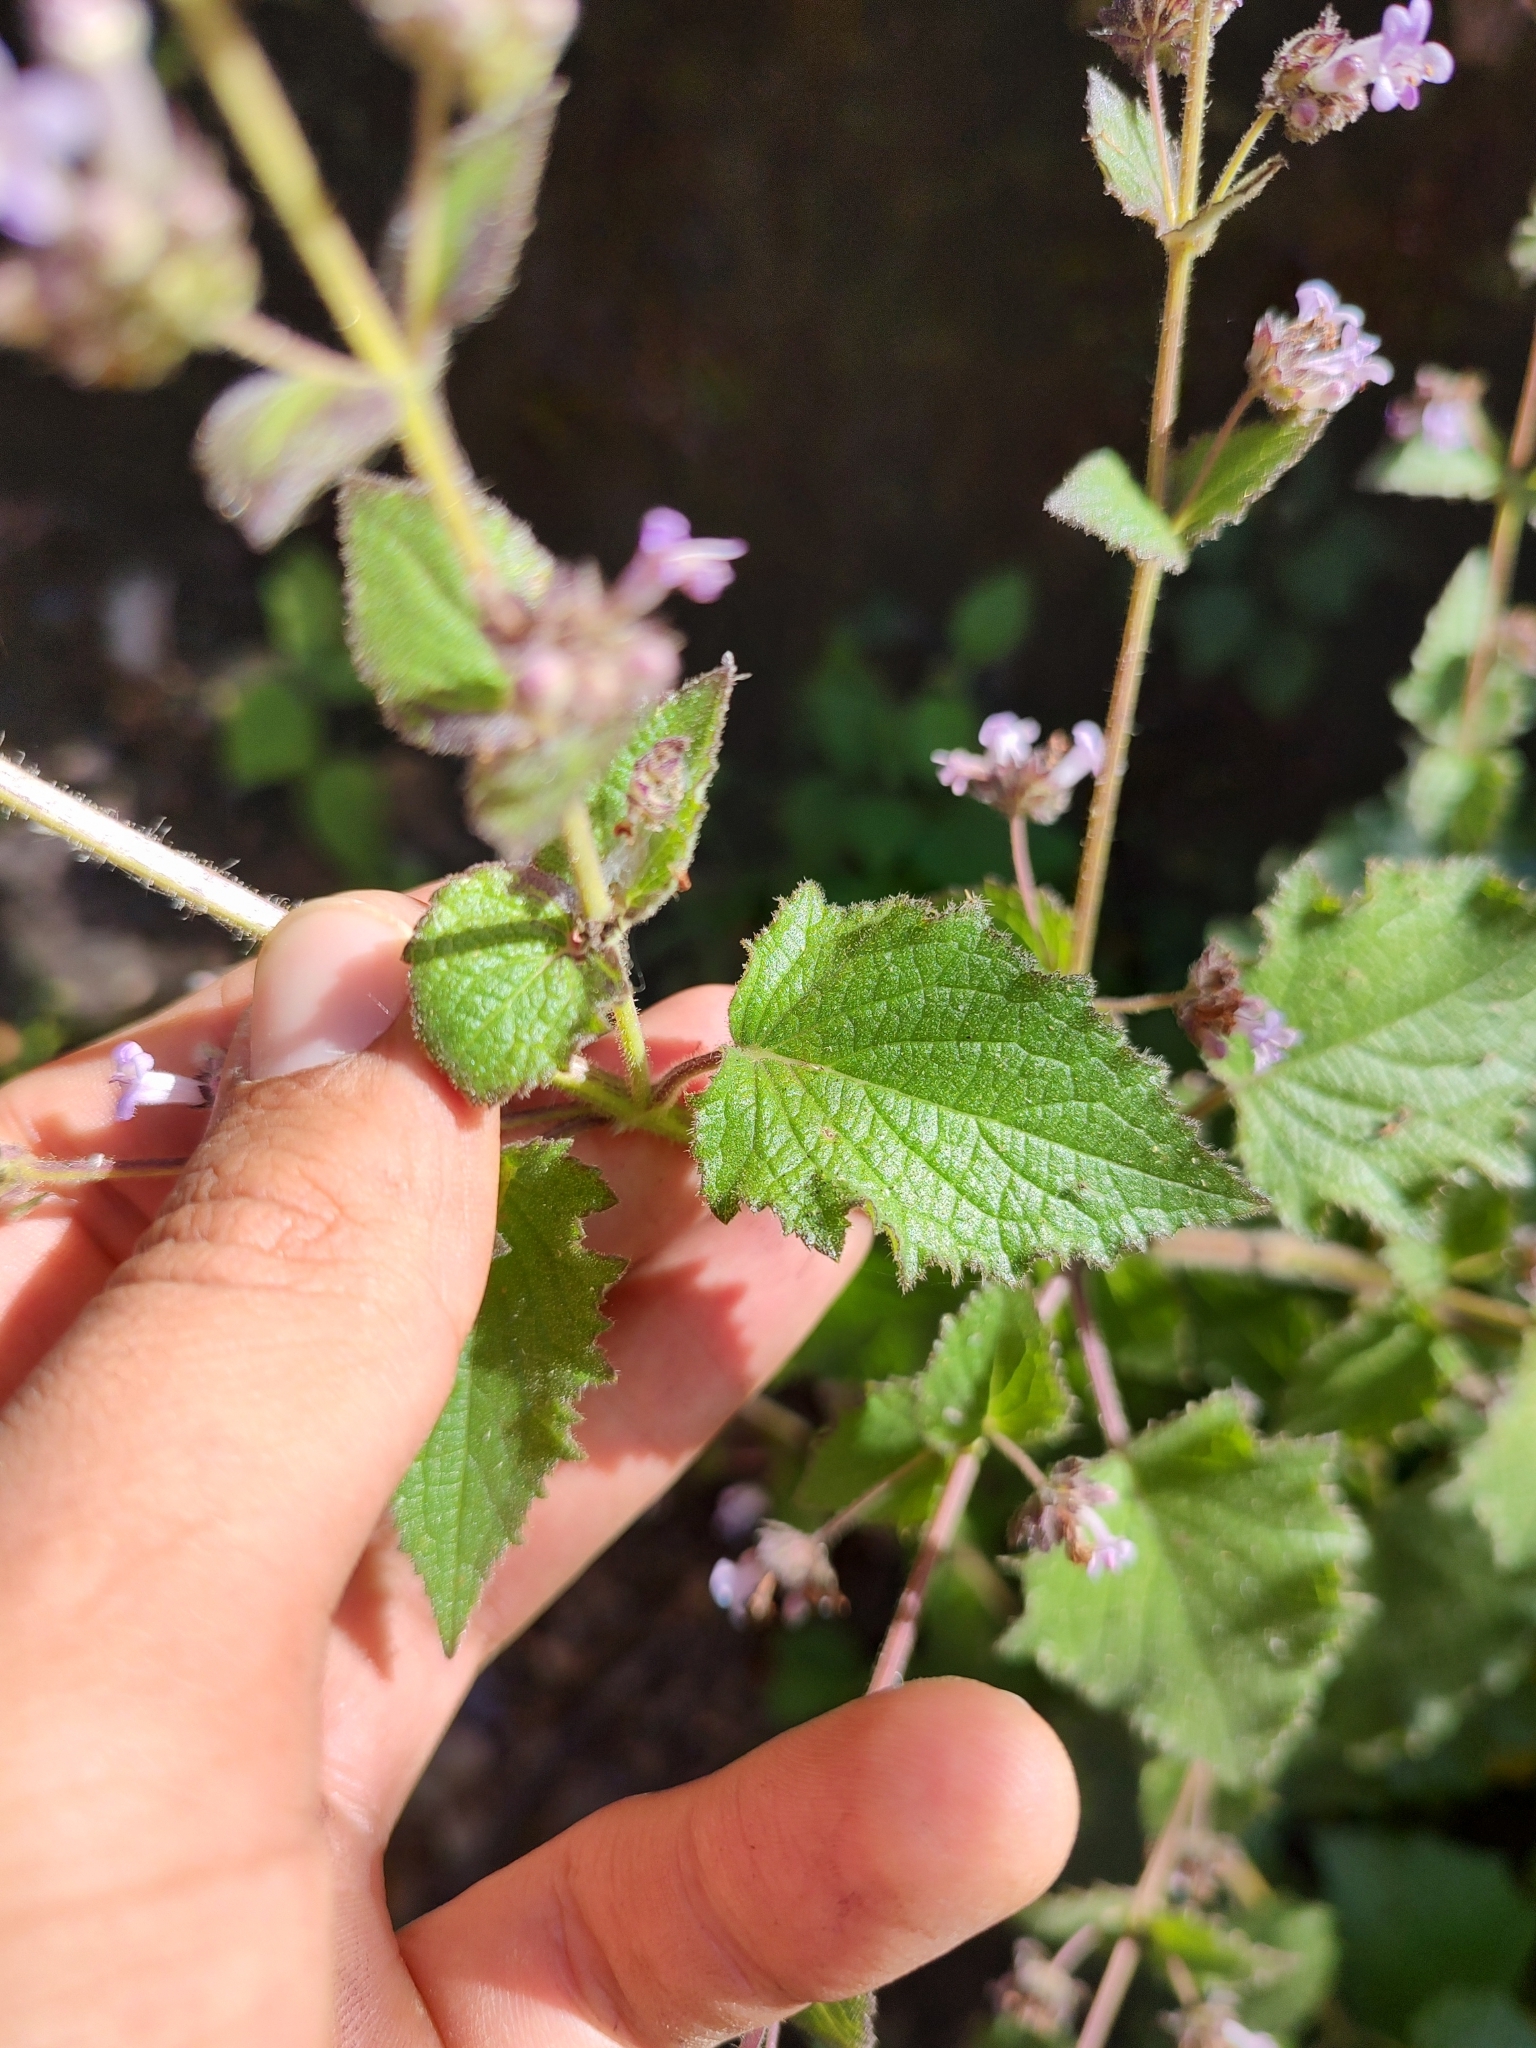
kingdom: Plantae
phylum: Tracheophyta
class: Magnoliopsida
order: Lamiales
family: Lamiaceae
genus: Mesosphaerum
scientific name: Mesosphaerum urticoides
